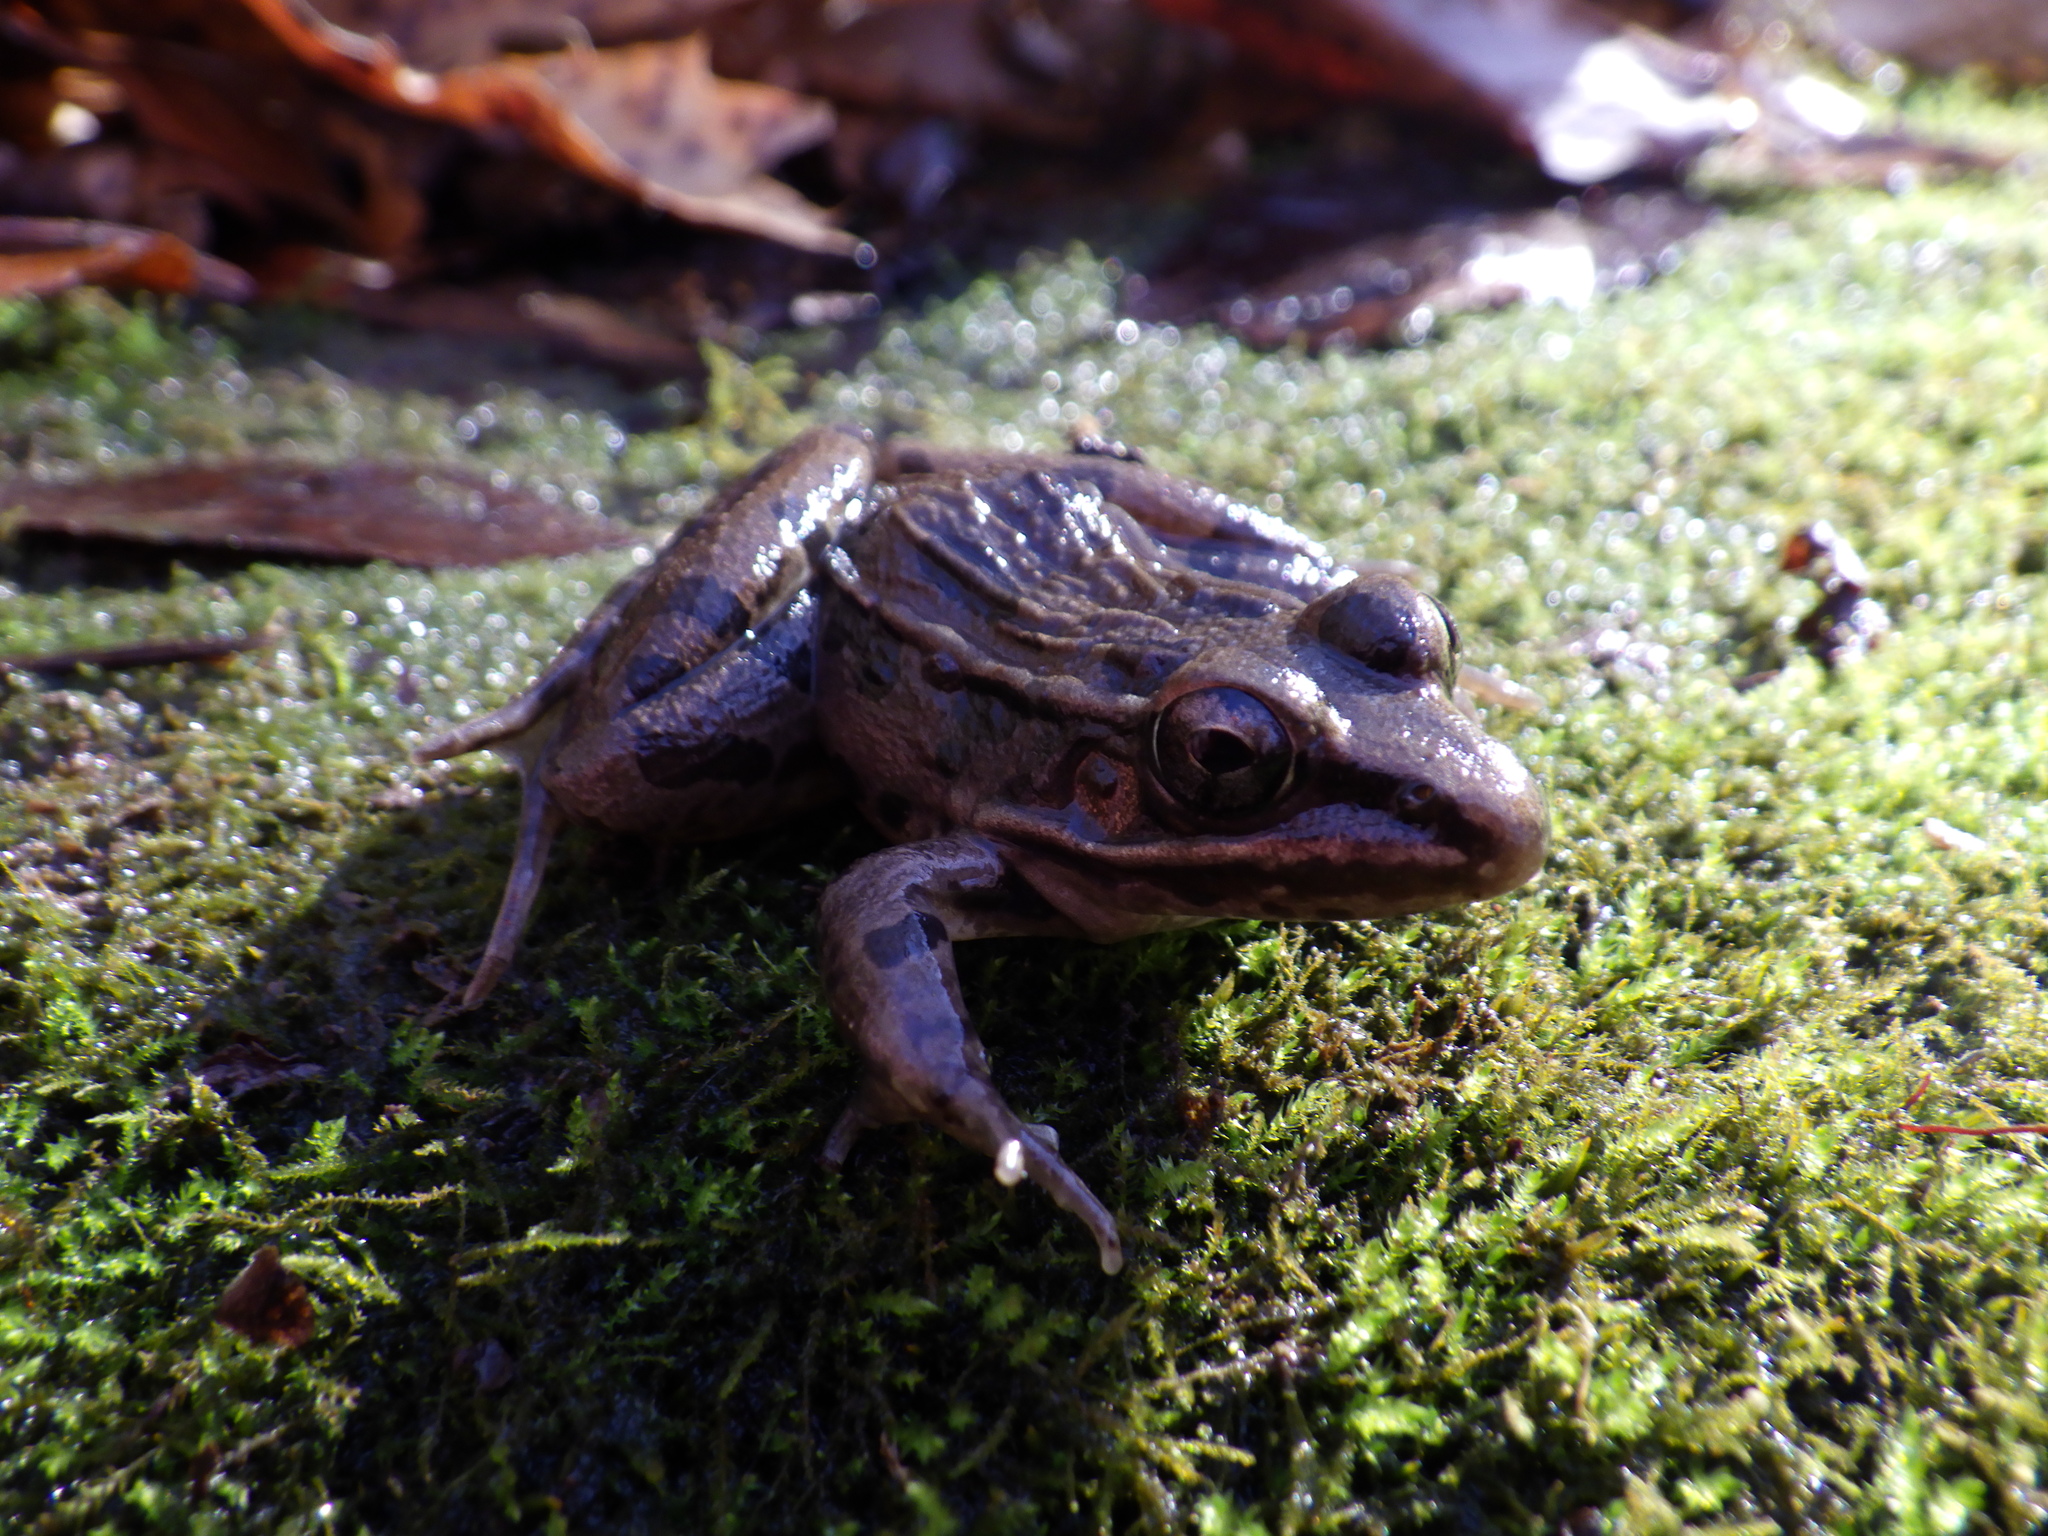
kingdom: Animalia
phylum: Chordata
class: Amphibia
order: Anura
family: Ranidae
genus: Lithobates
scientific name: Lithobates sphenocephalus
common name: Southern leopard frog
